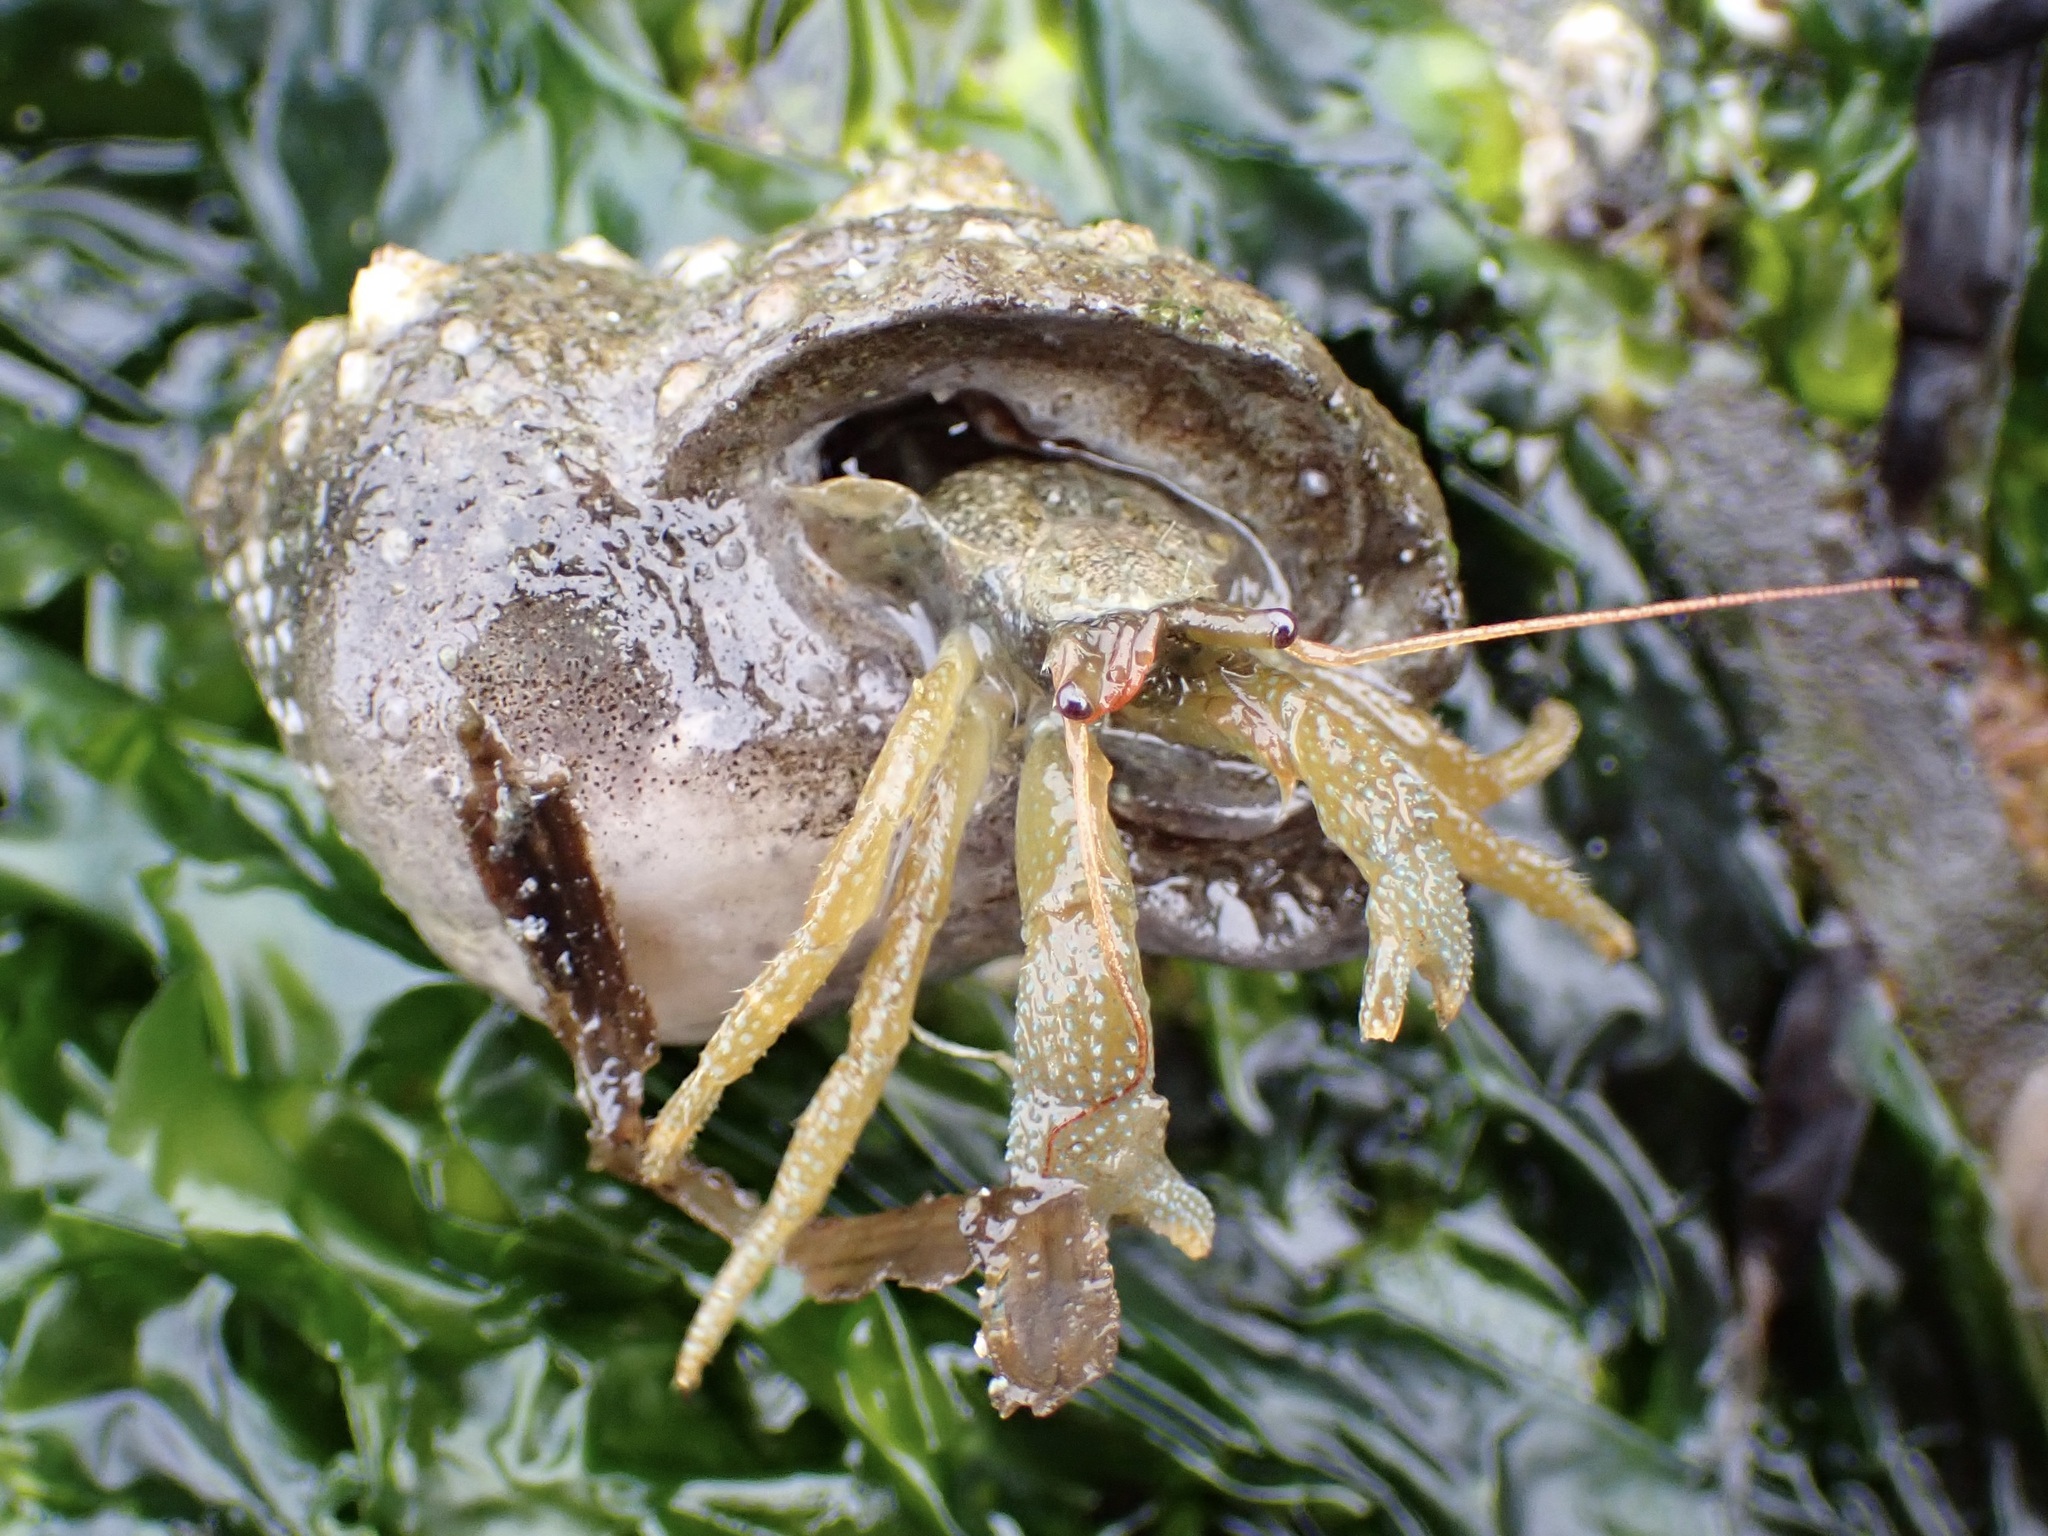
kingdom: Animalia
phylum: Arthropoda
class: Malacostraca
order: Decapoda
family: Paguridae
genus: Pagurus
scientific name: Pagurus granosimanus
